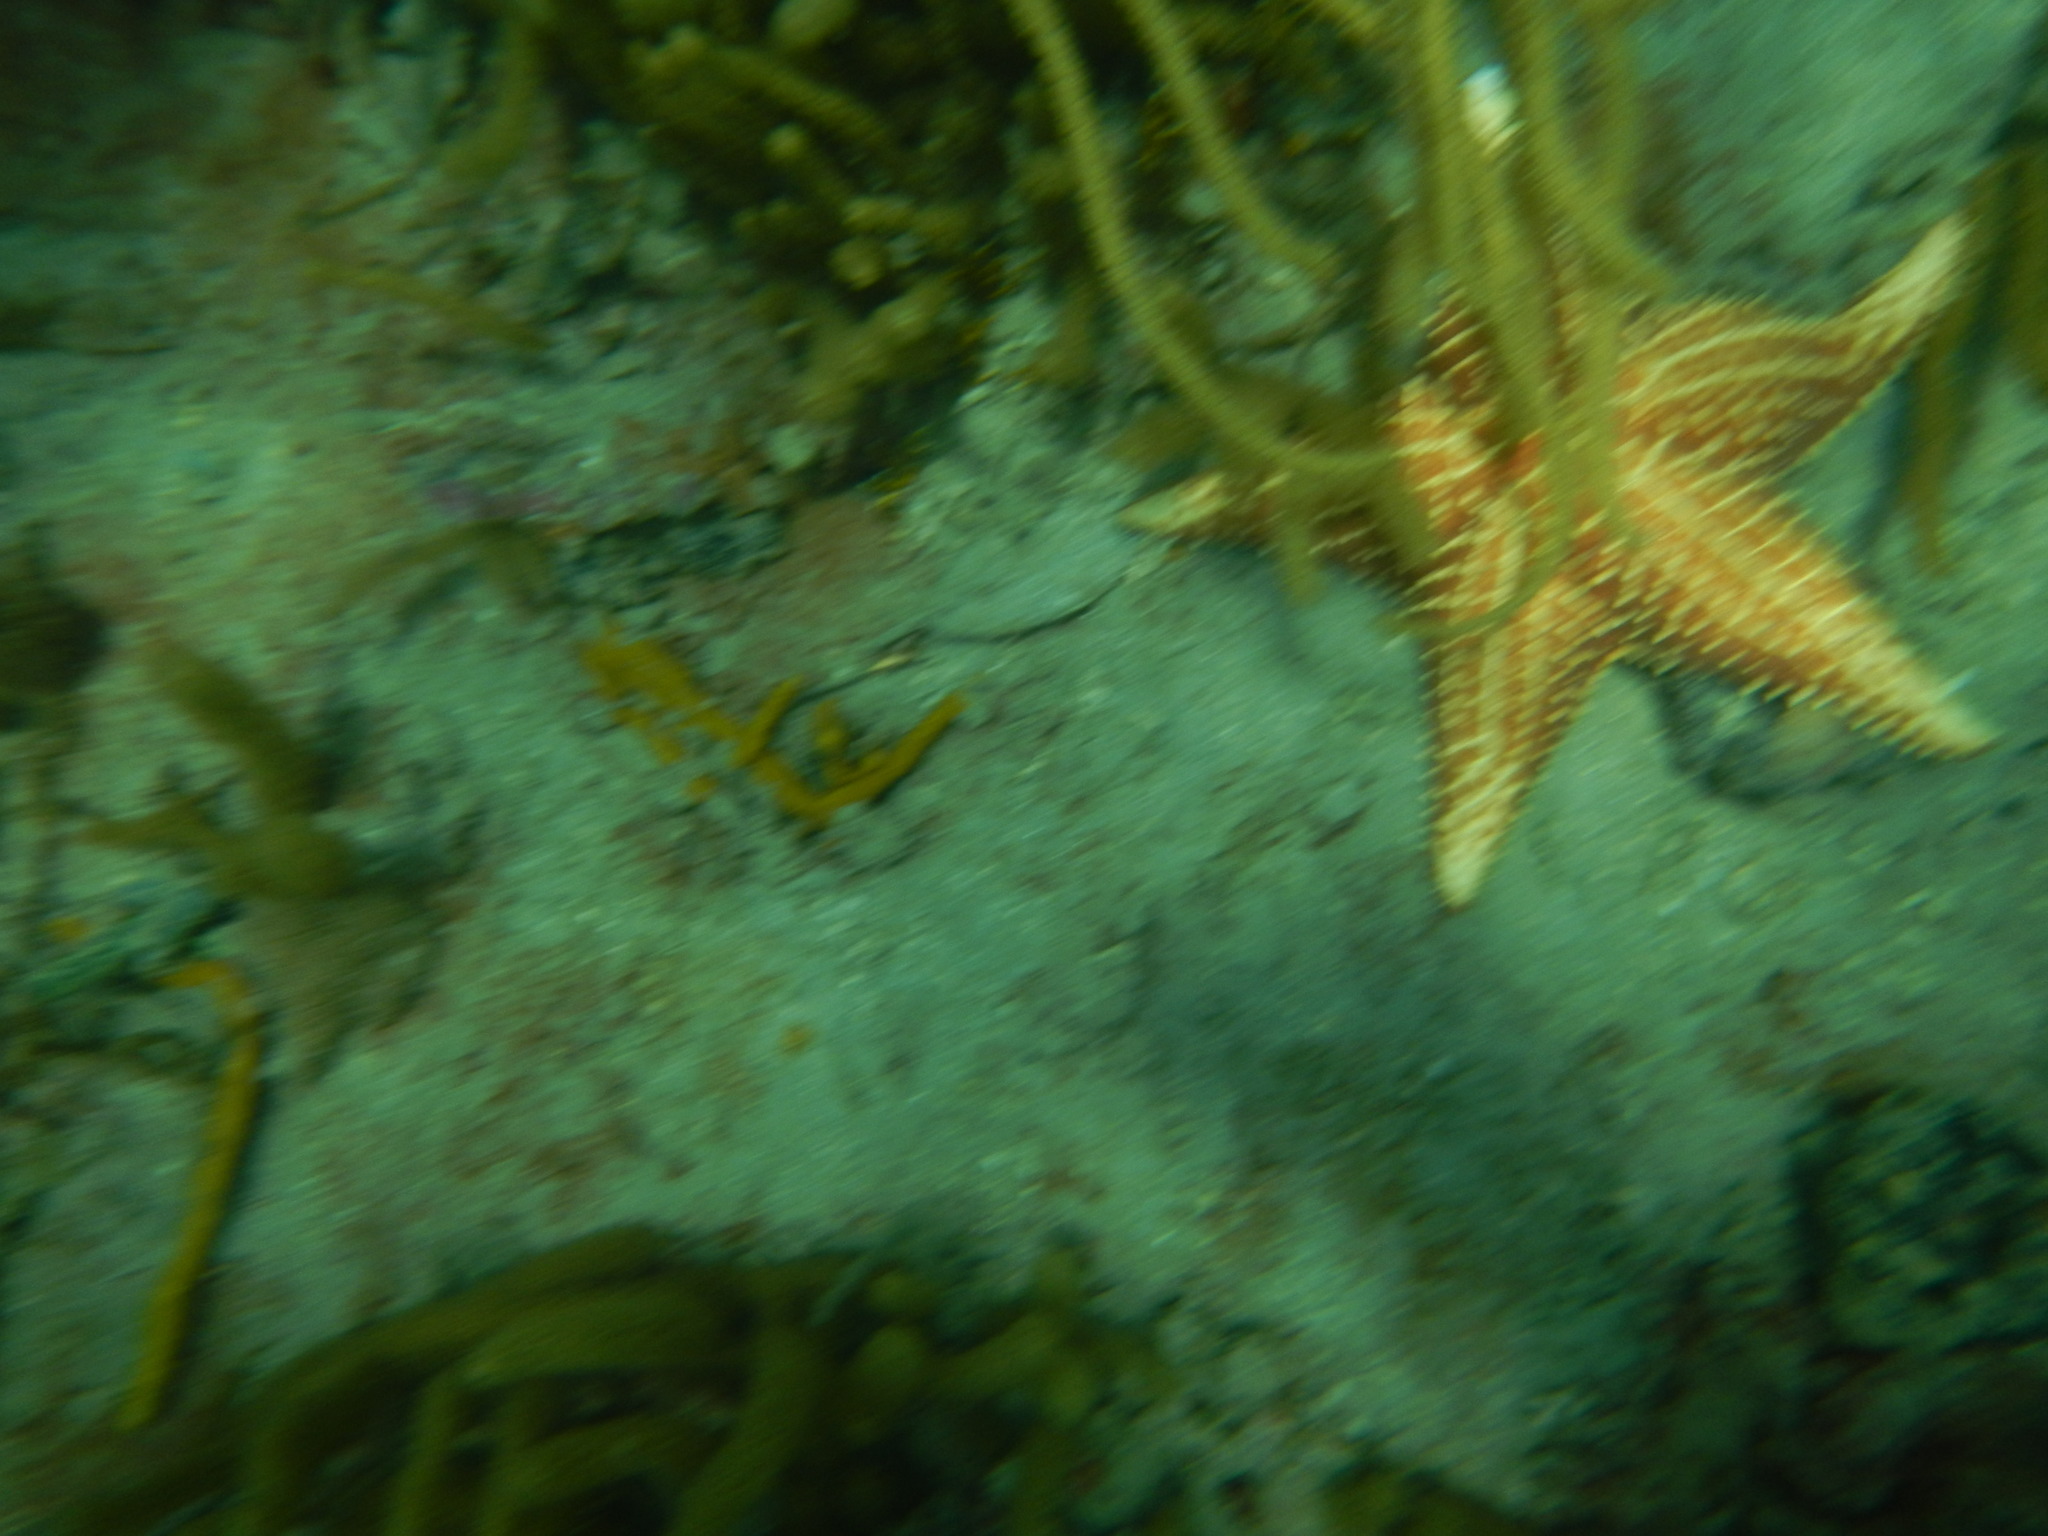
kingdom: Animalia
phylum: Echinodermata
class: Asteroidea
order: Valvatida
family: Oreasteridae
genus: Oreaster
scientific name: Oreaster reticulatus
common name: Cushion sea star
